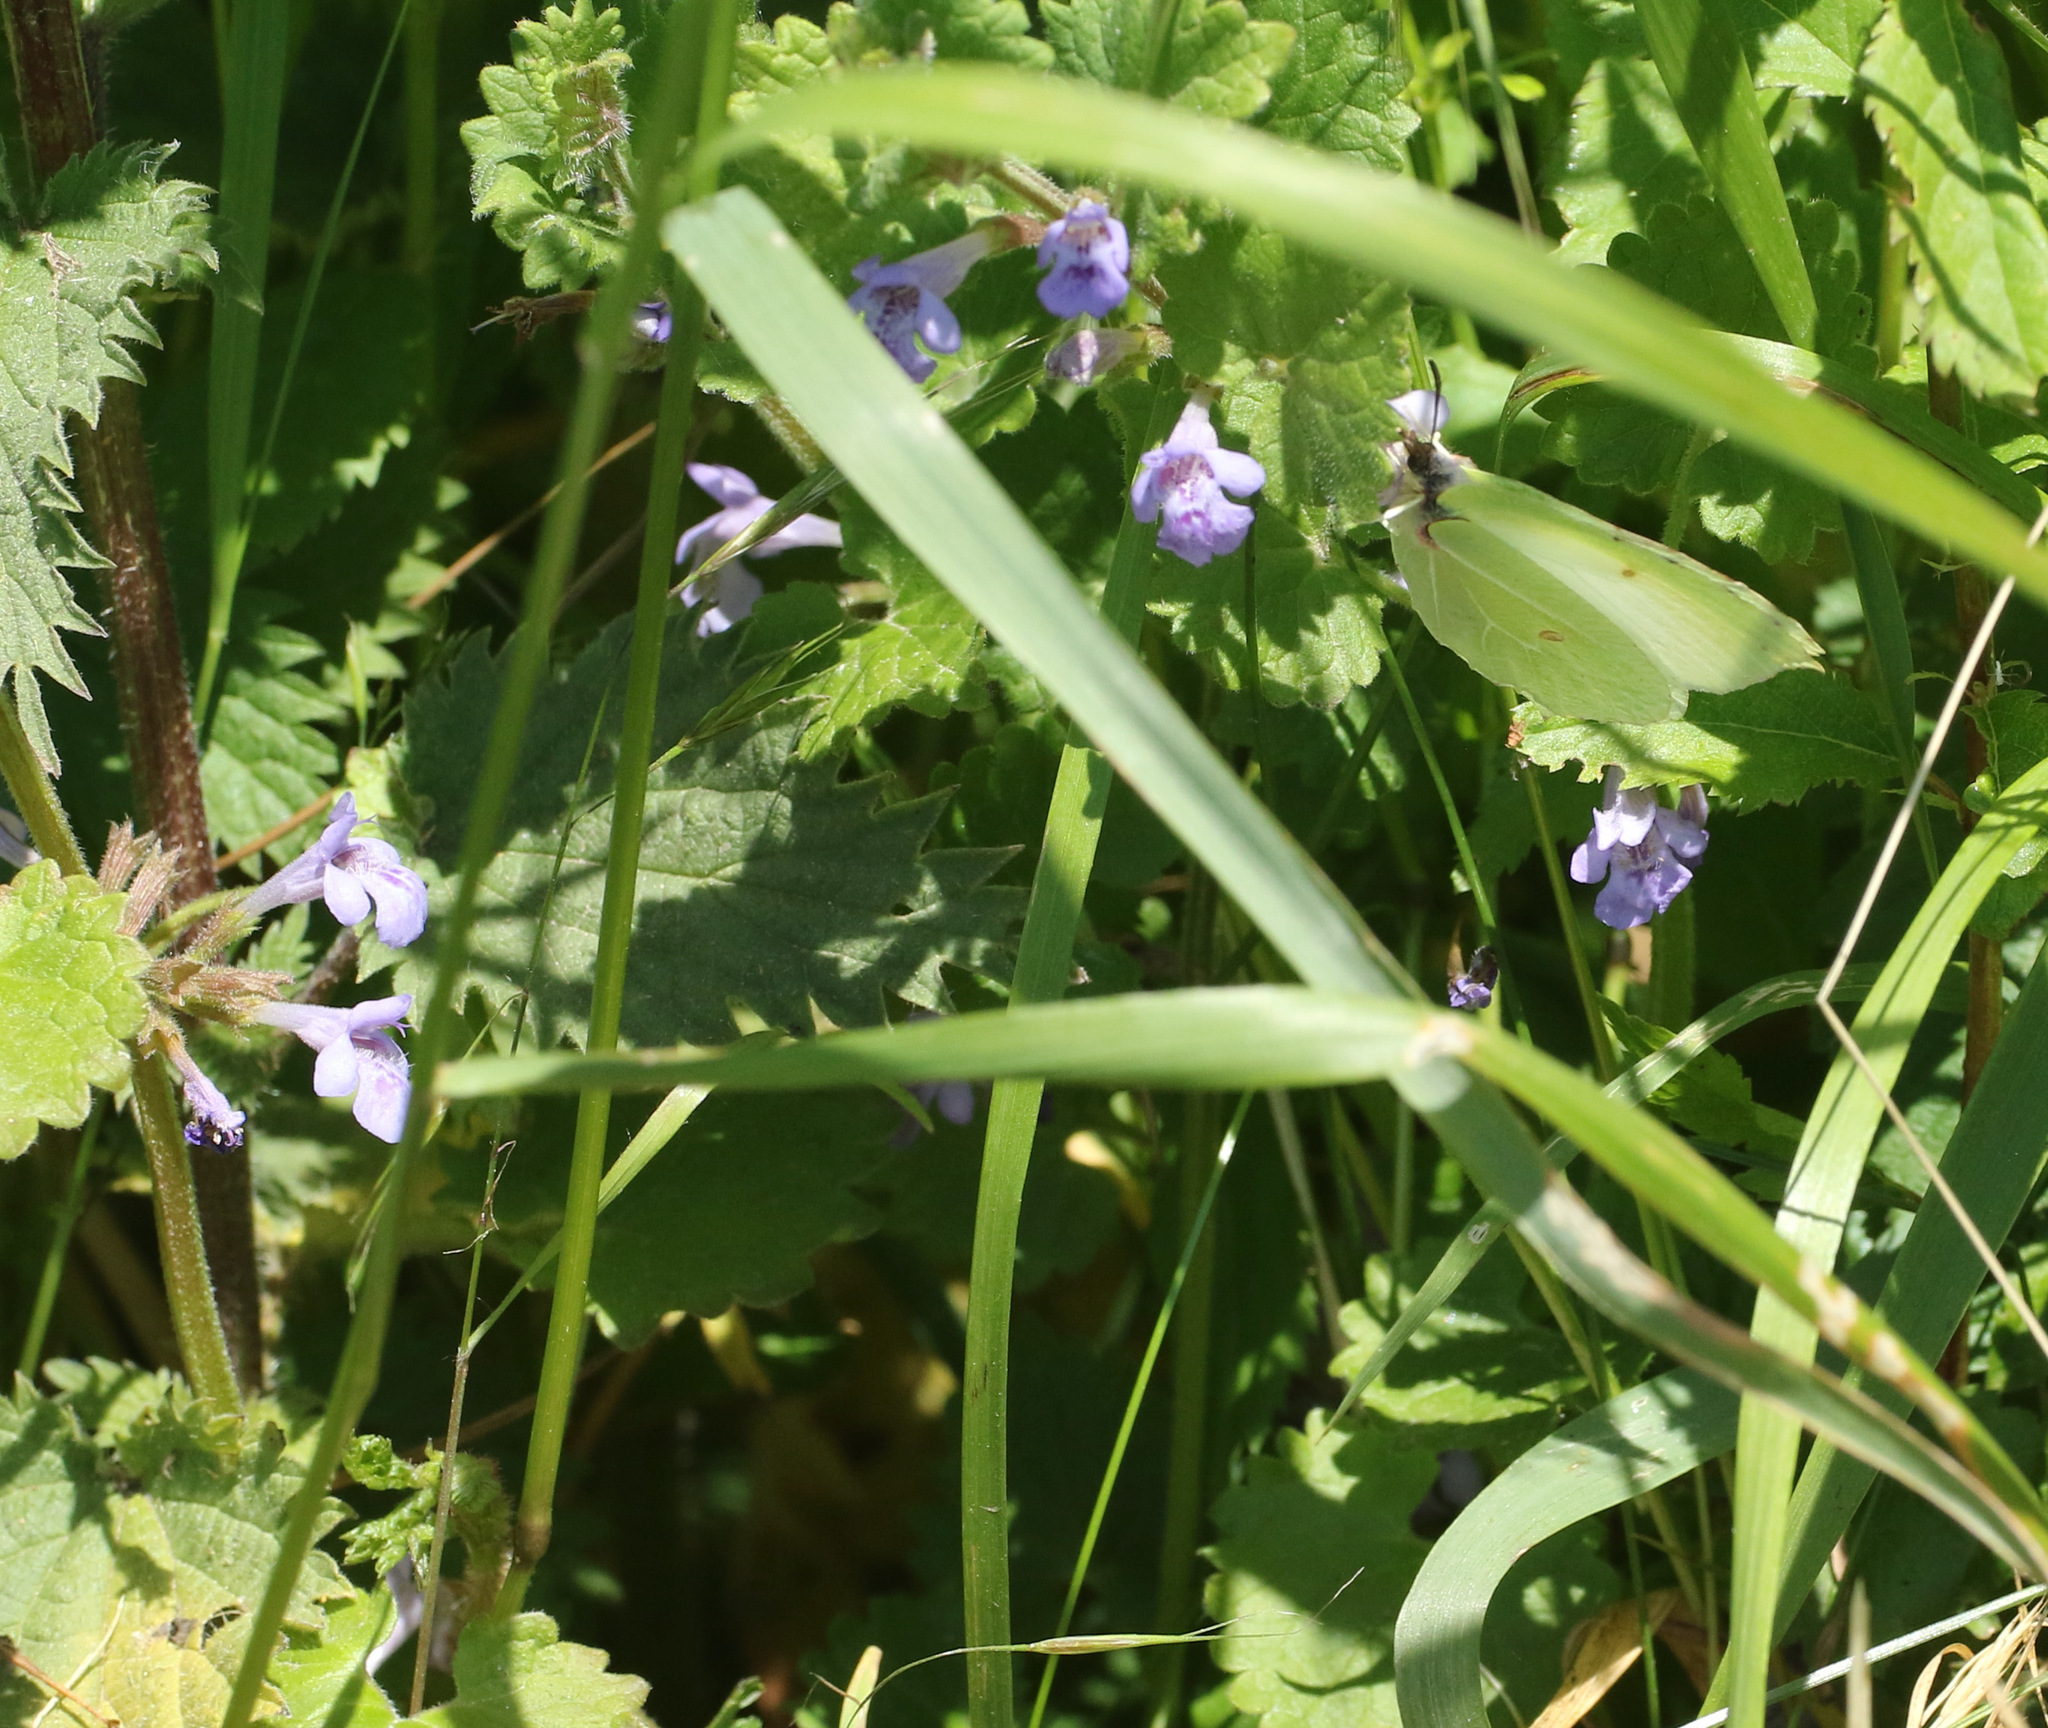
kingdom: Plantae
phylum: Tracheophyta
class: Magnoliopsida
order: Lamiales
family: Lamiaceae
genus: Glechoma
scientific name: Glechoma hederacea
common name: Ground ivy
